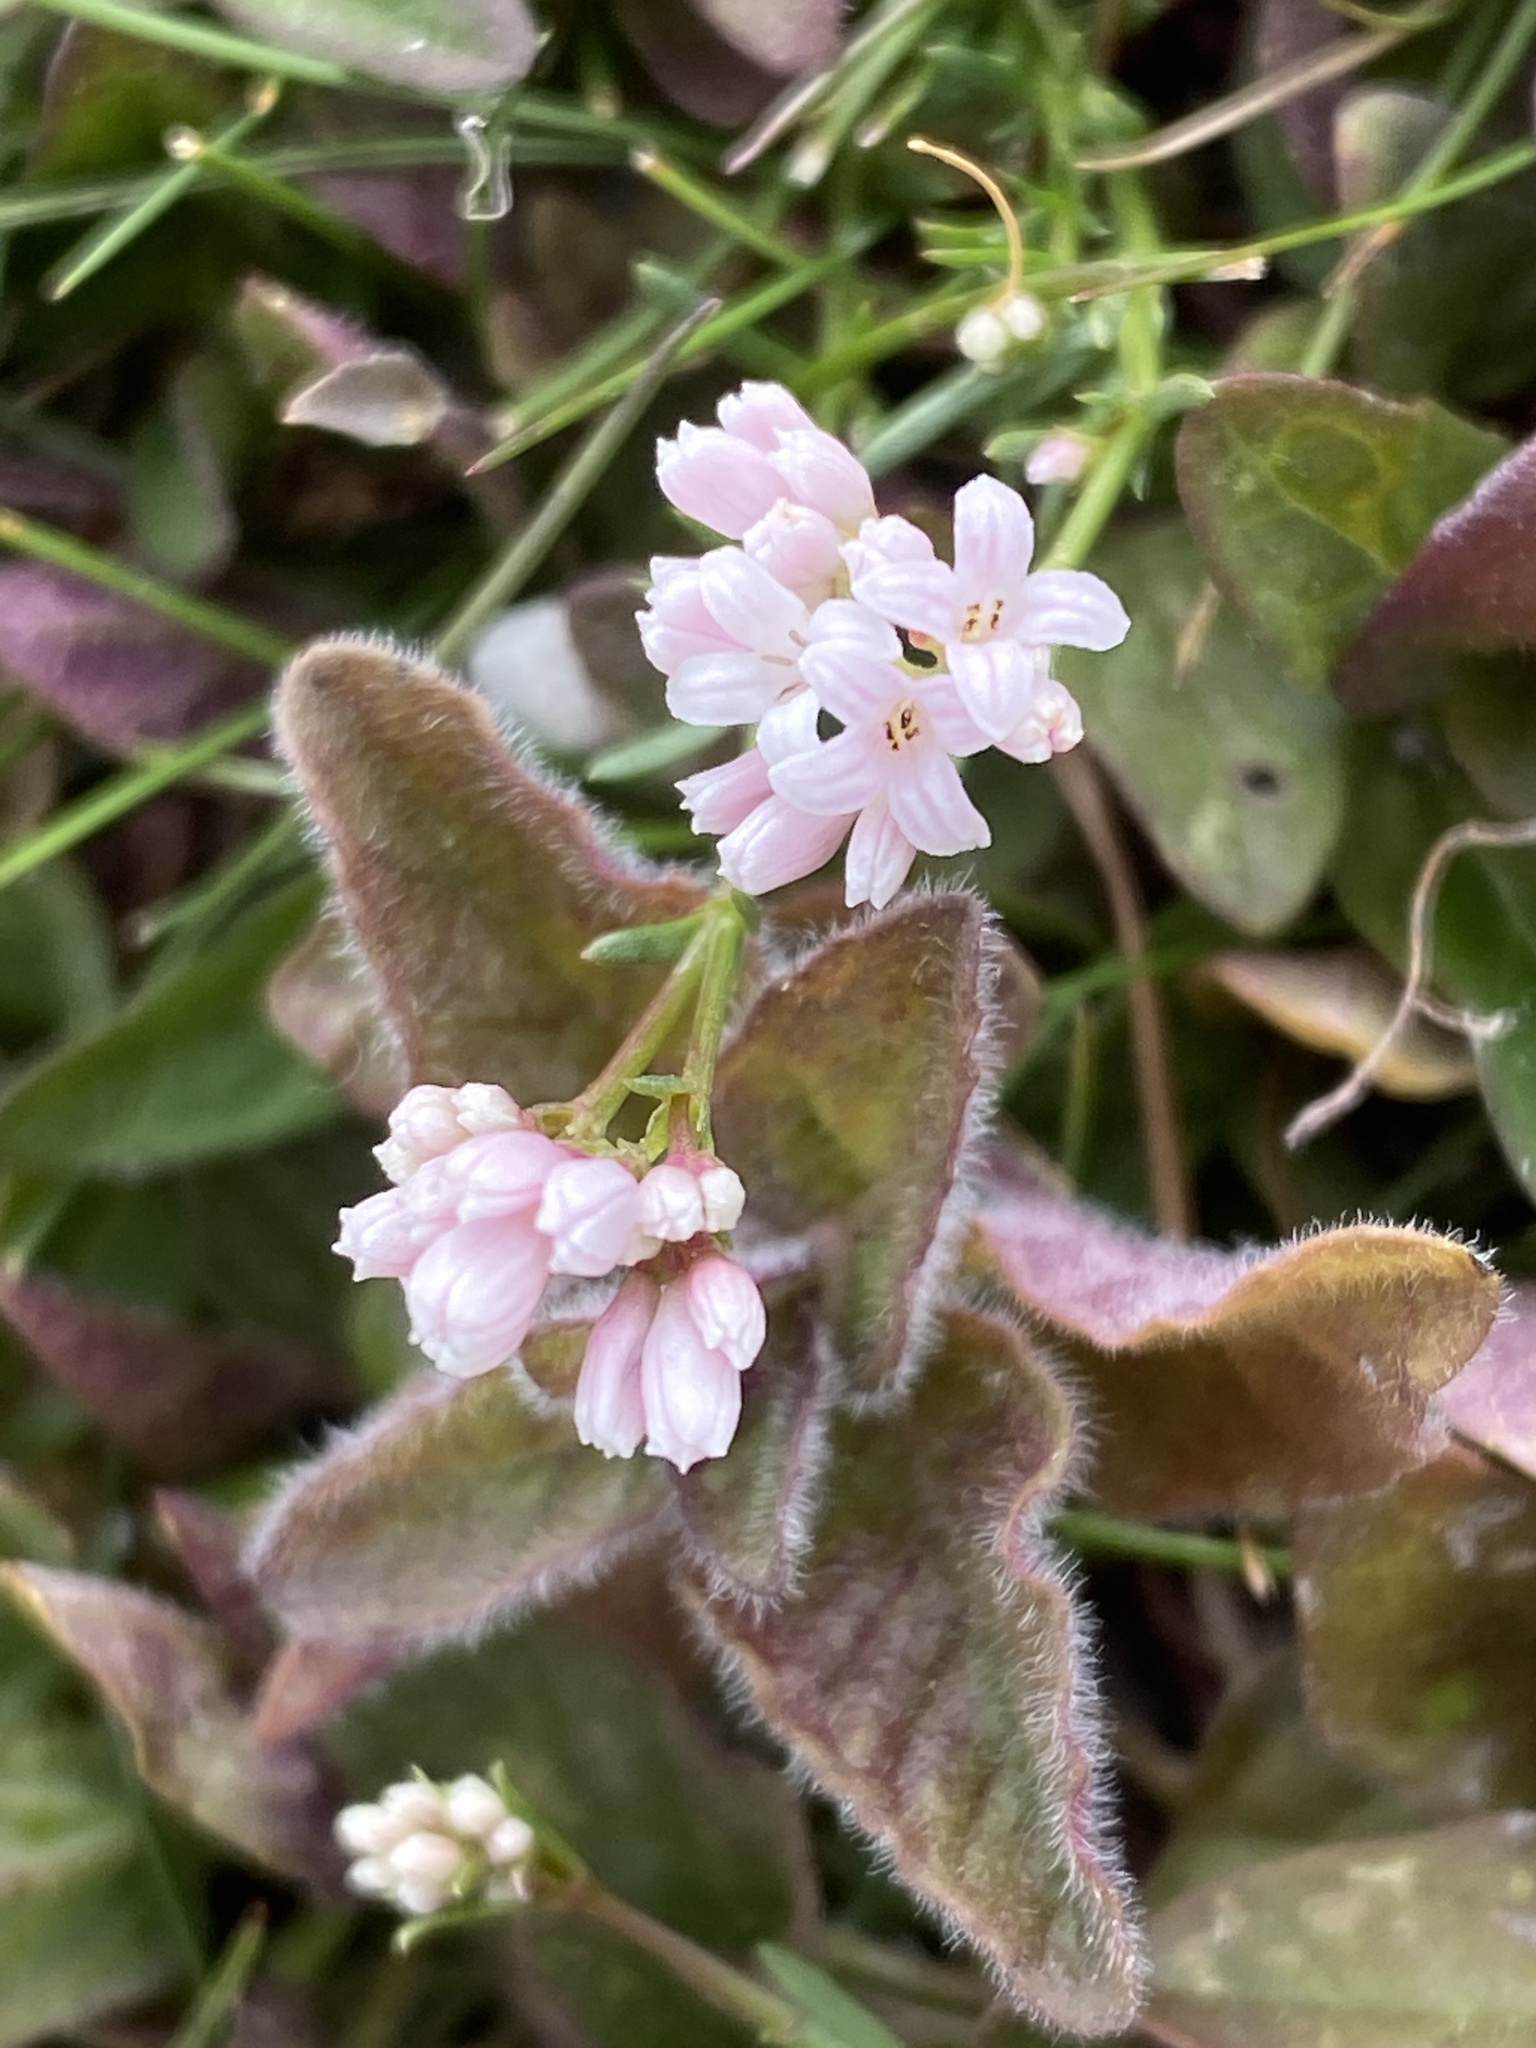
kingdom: Plantae
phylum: Tracheophyta
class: Magnoliopsida
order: Gentianales
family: Rubiaceae
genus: Cynanchica
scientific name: Cynanchica pyrenaica
